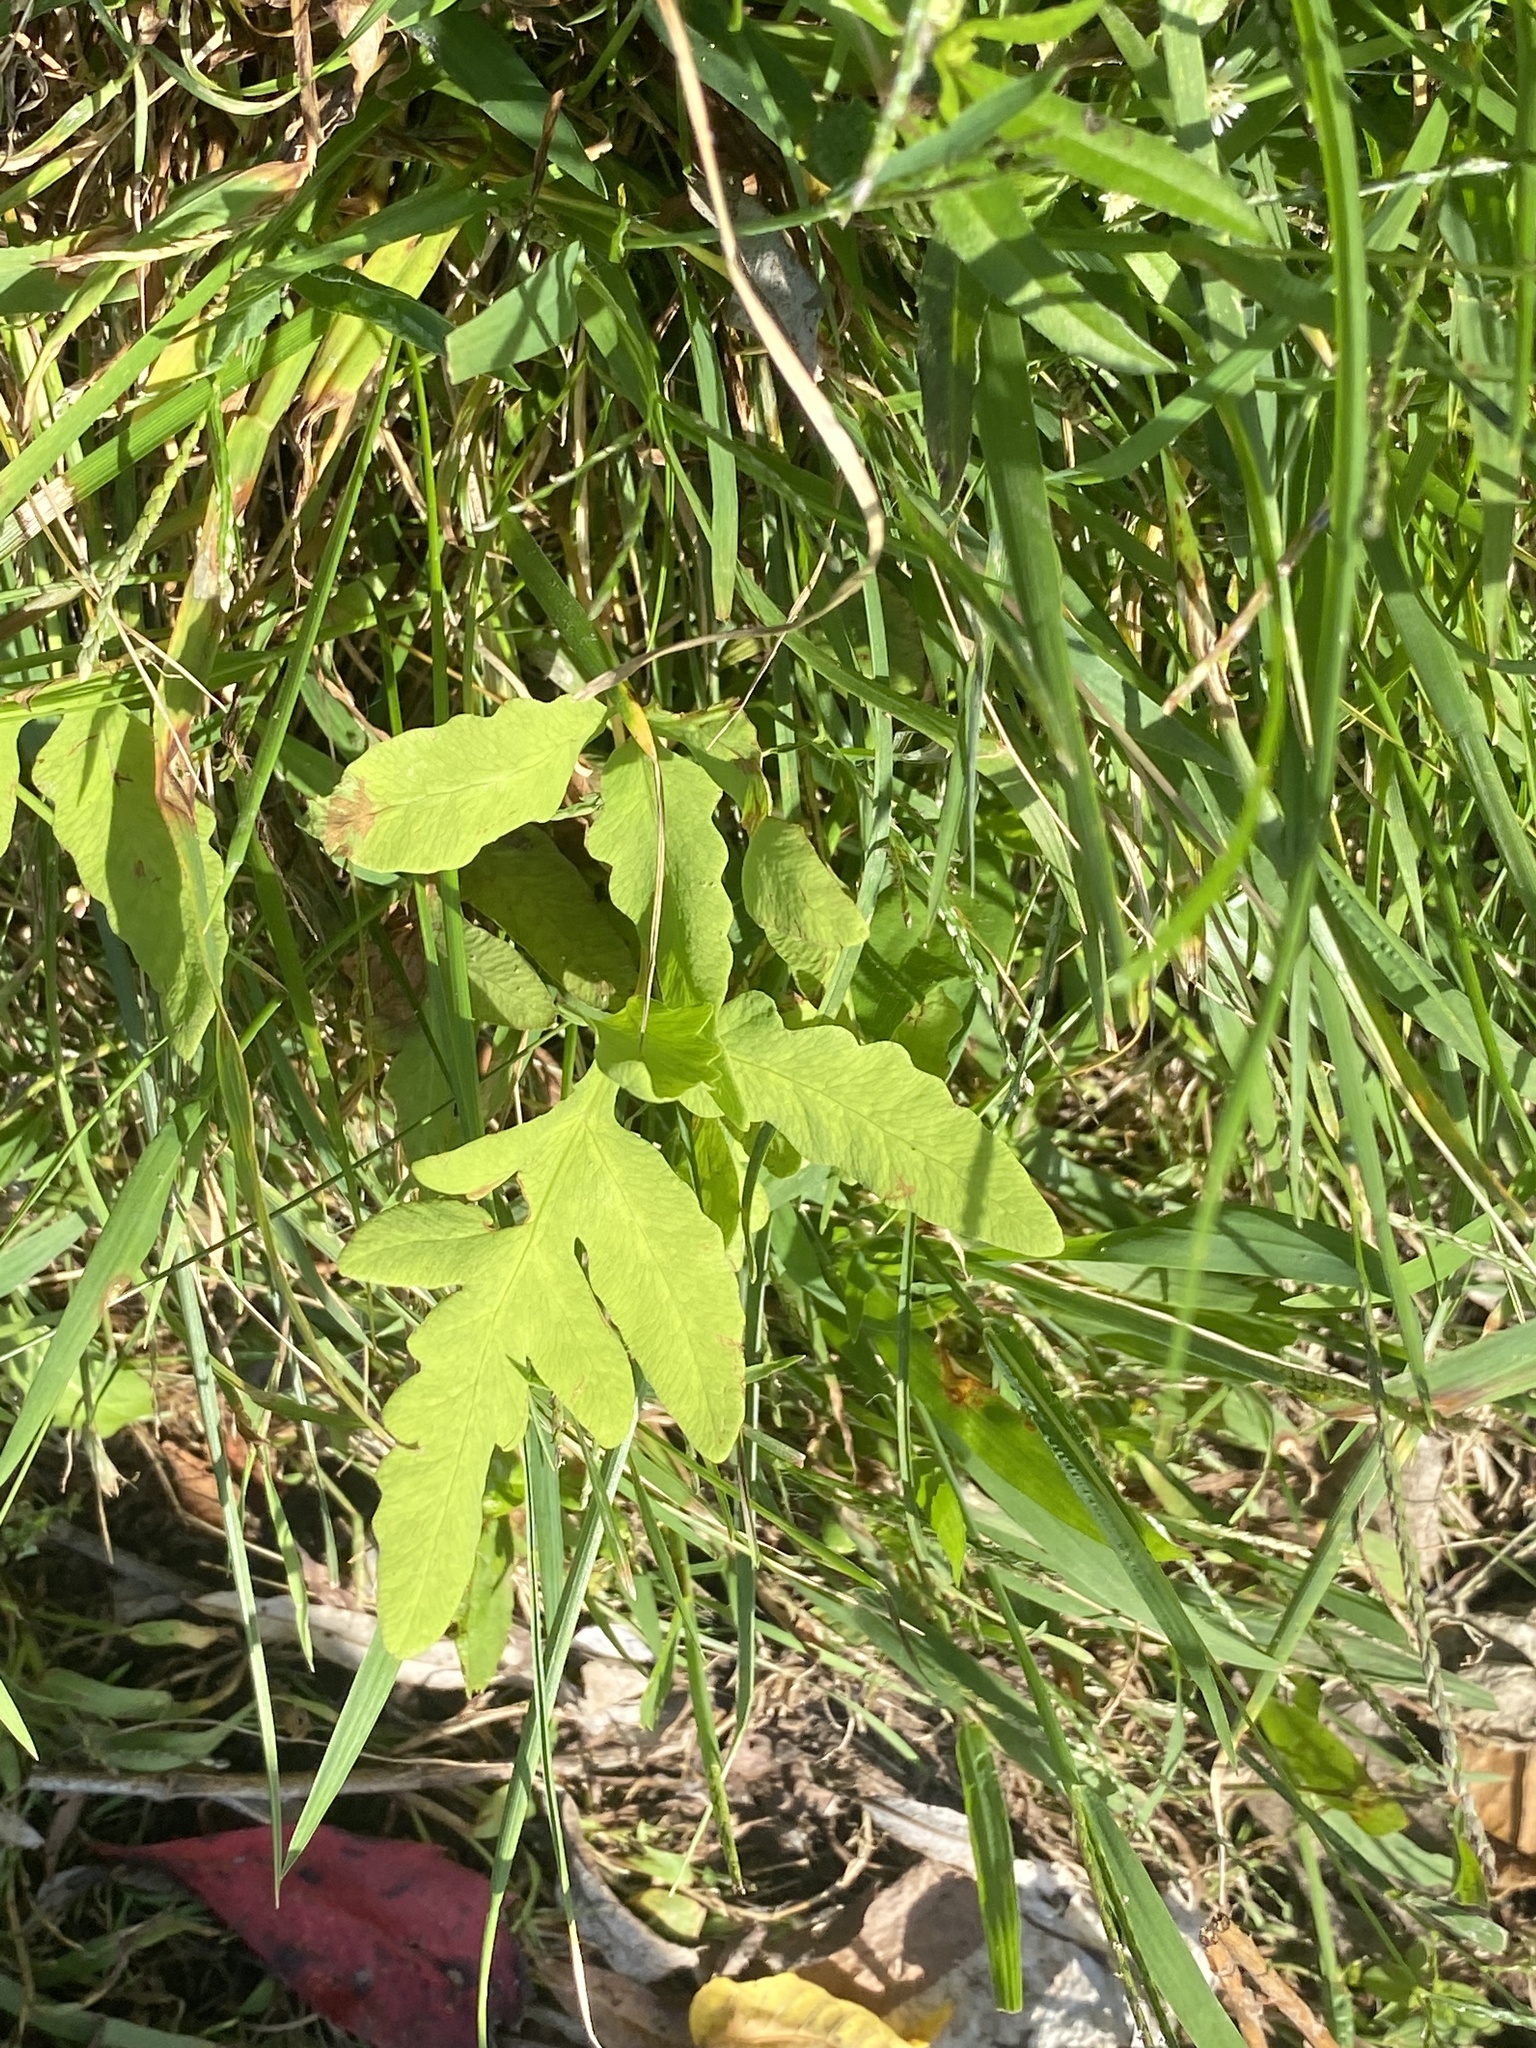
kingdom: Plantae
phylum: Tracheophyta
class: Polypodiopsida
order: Polypodiales
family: Onocleaceae
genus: Onoclea
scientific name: Onoclea sensibilis
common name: Sensitive fern
